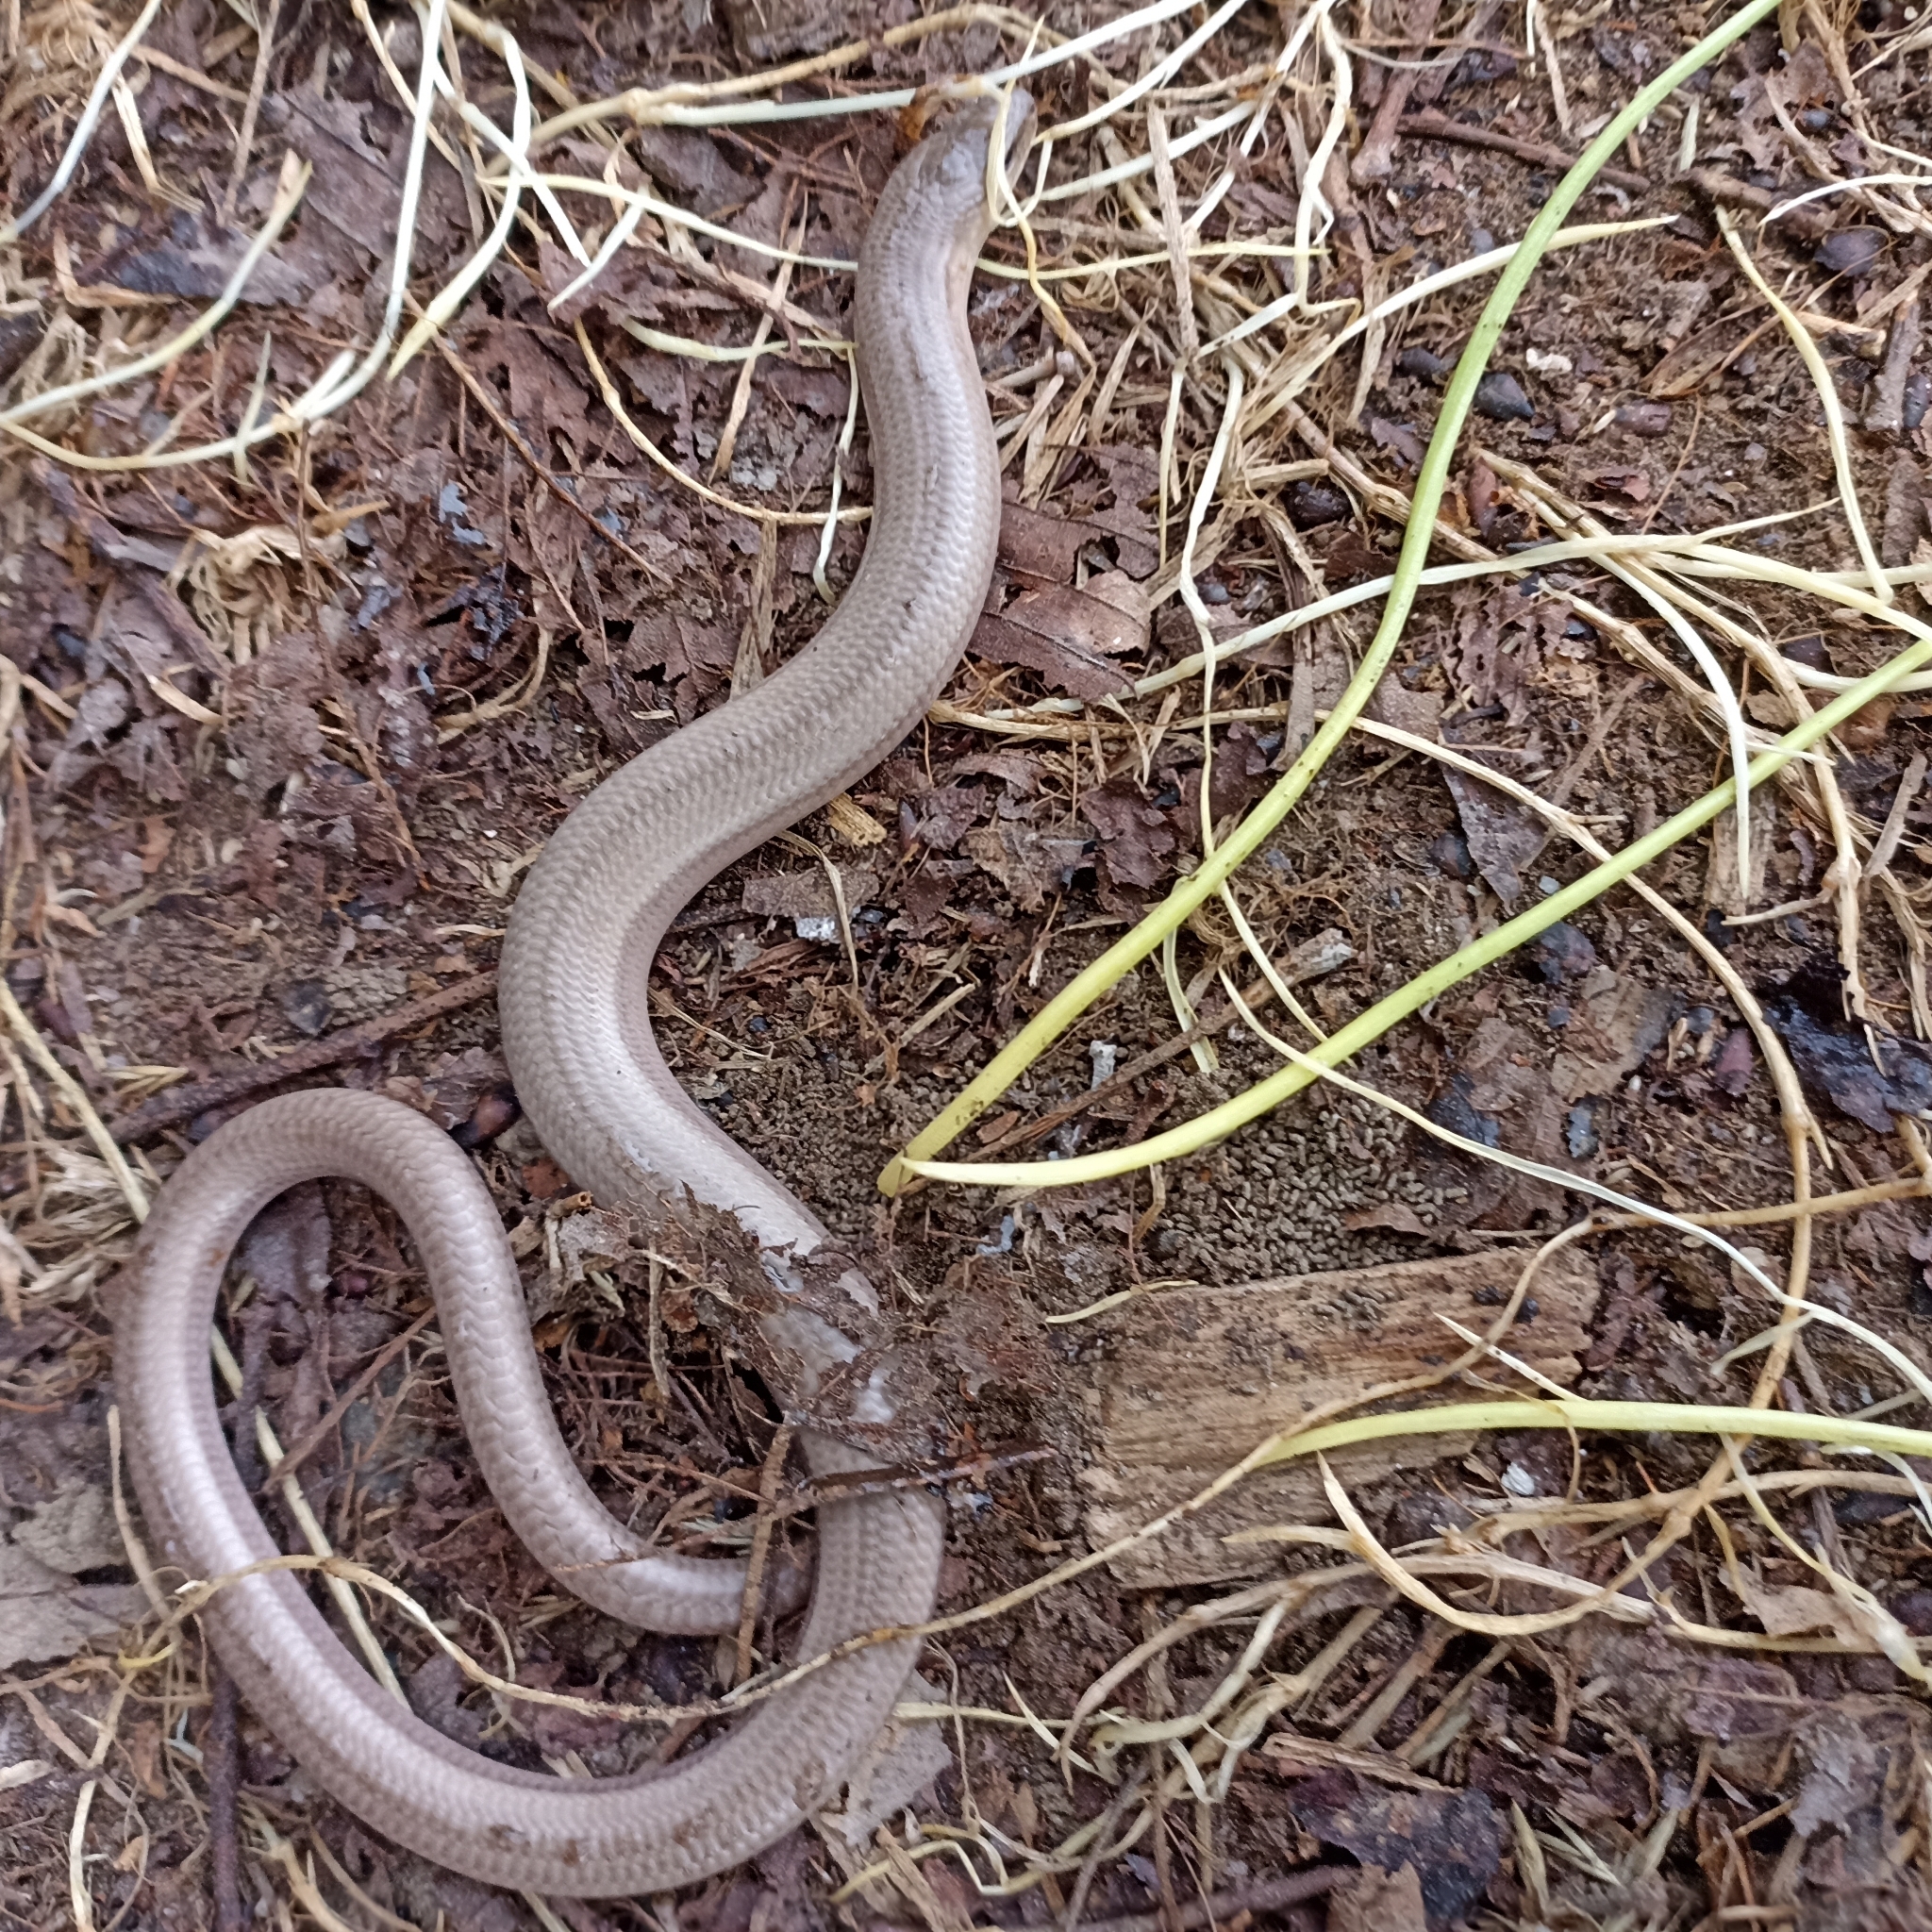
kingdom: Animalia
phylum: Chordata
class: Squamata
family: Anguidae
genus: Anguis
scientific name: Anguis fragilis
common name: Slow worm
